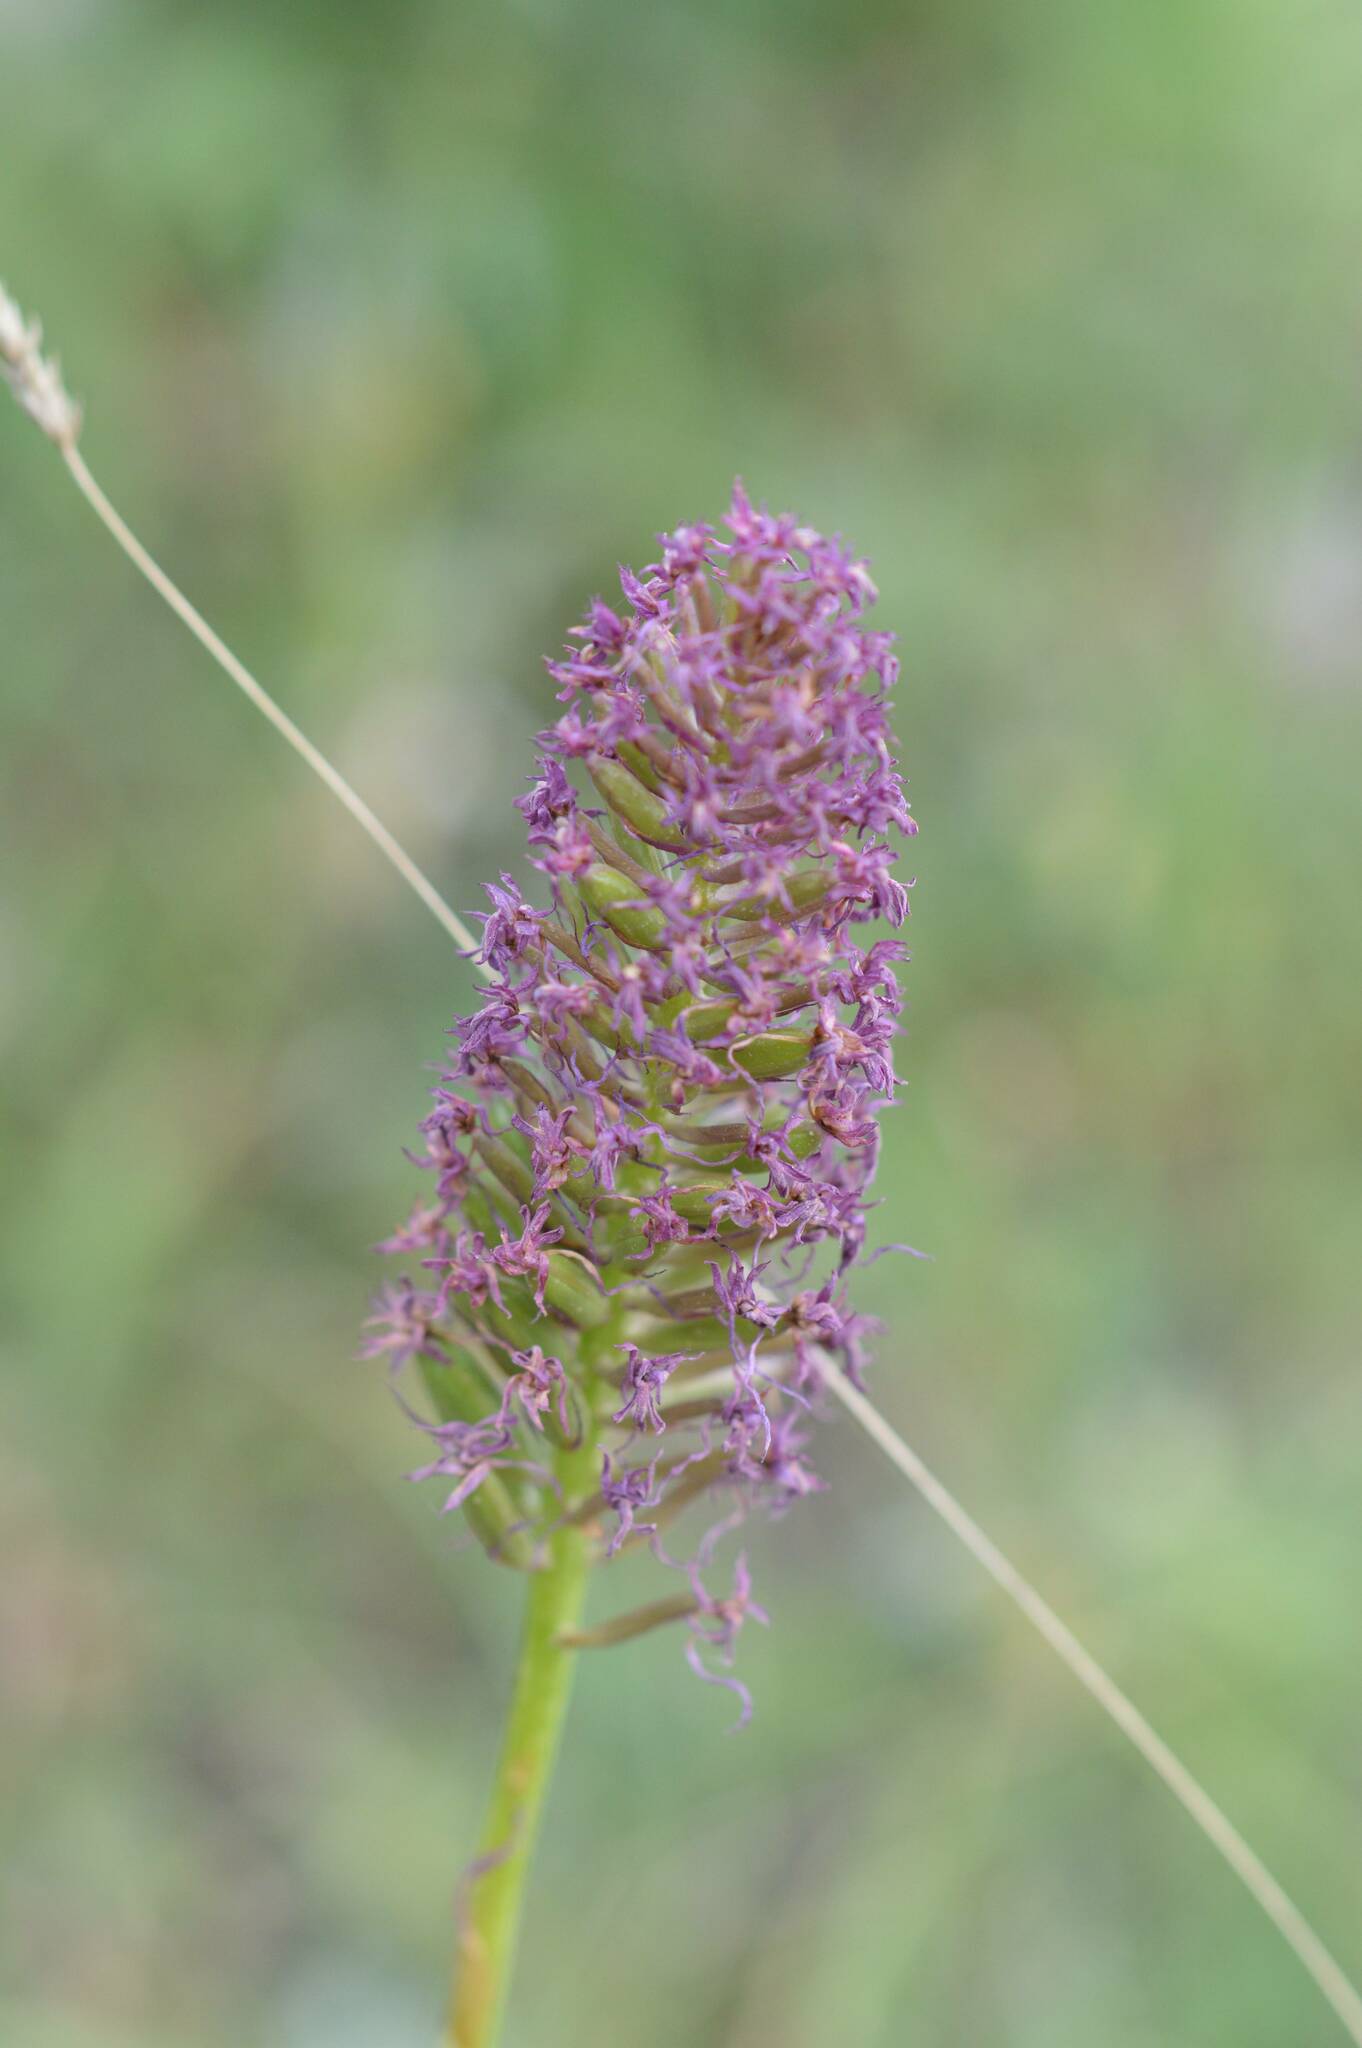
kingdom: Plantae
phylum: Tracheophyta
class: Liliopsida
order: Asparagales
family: Orchidaceae
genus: Anacamptis
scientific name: Anacamptis pyramidalis
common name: Pyramidal orchid
